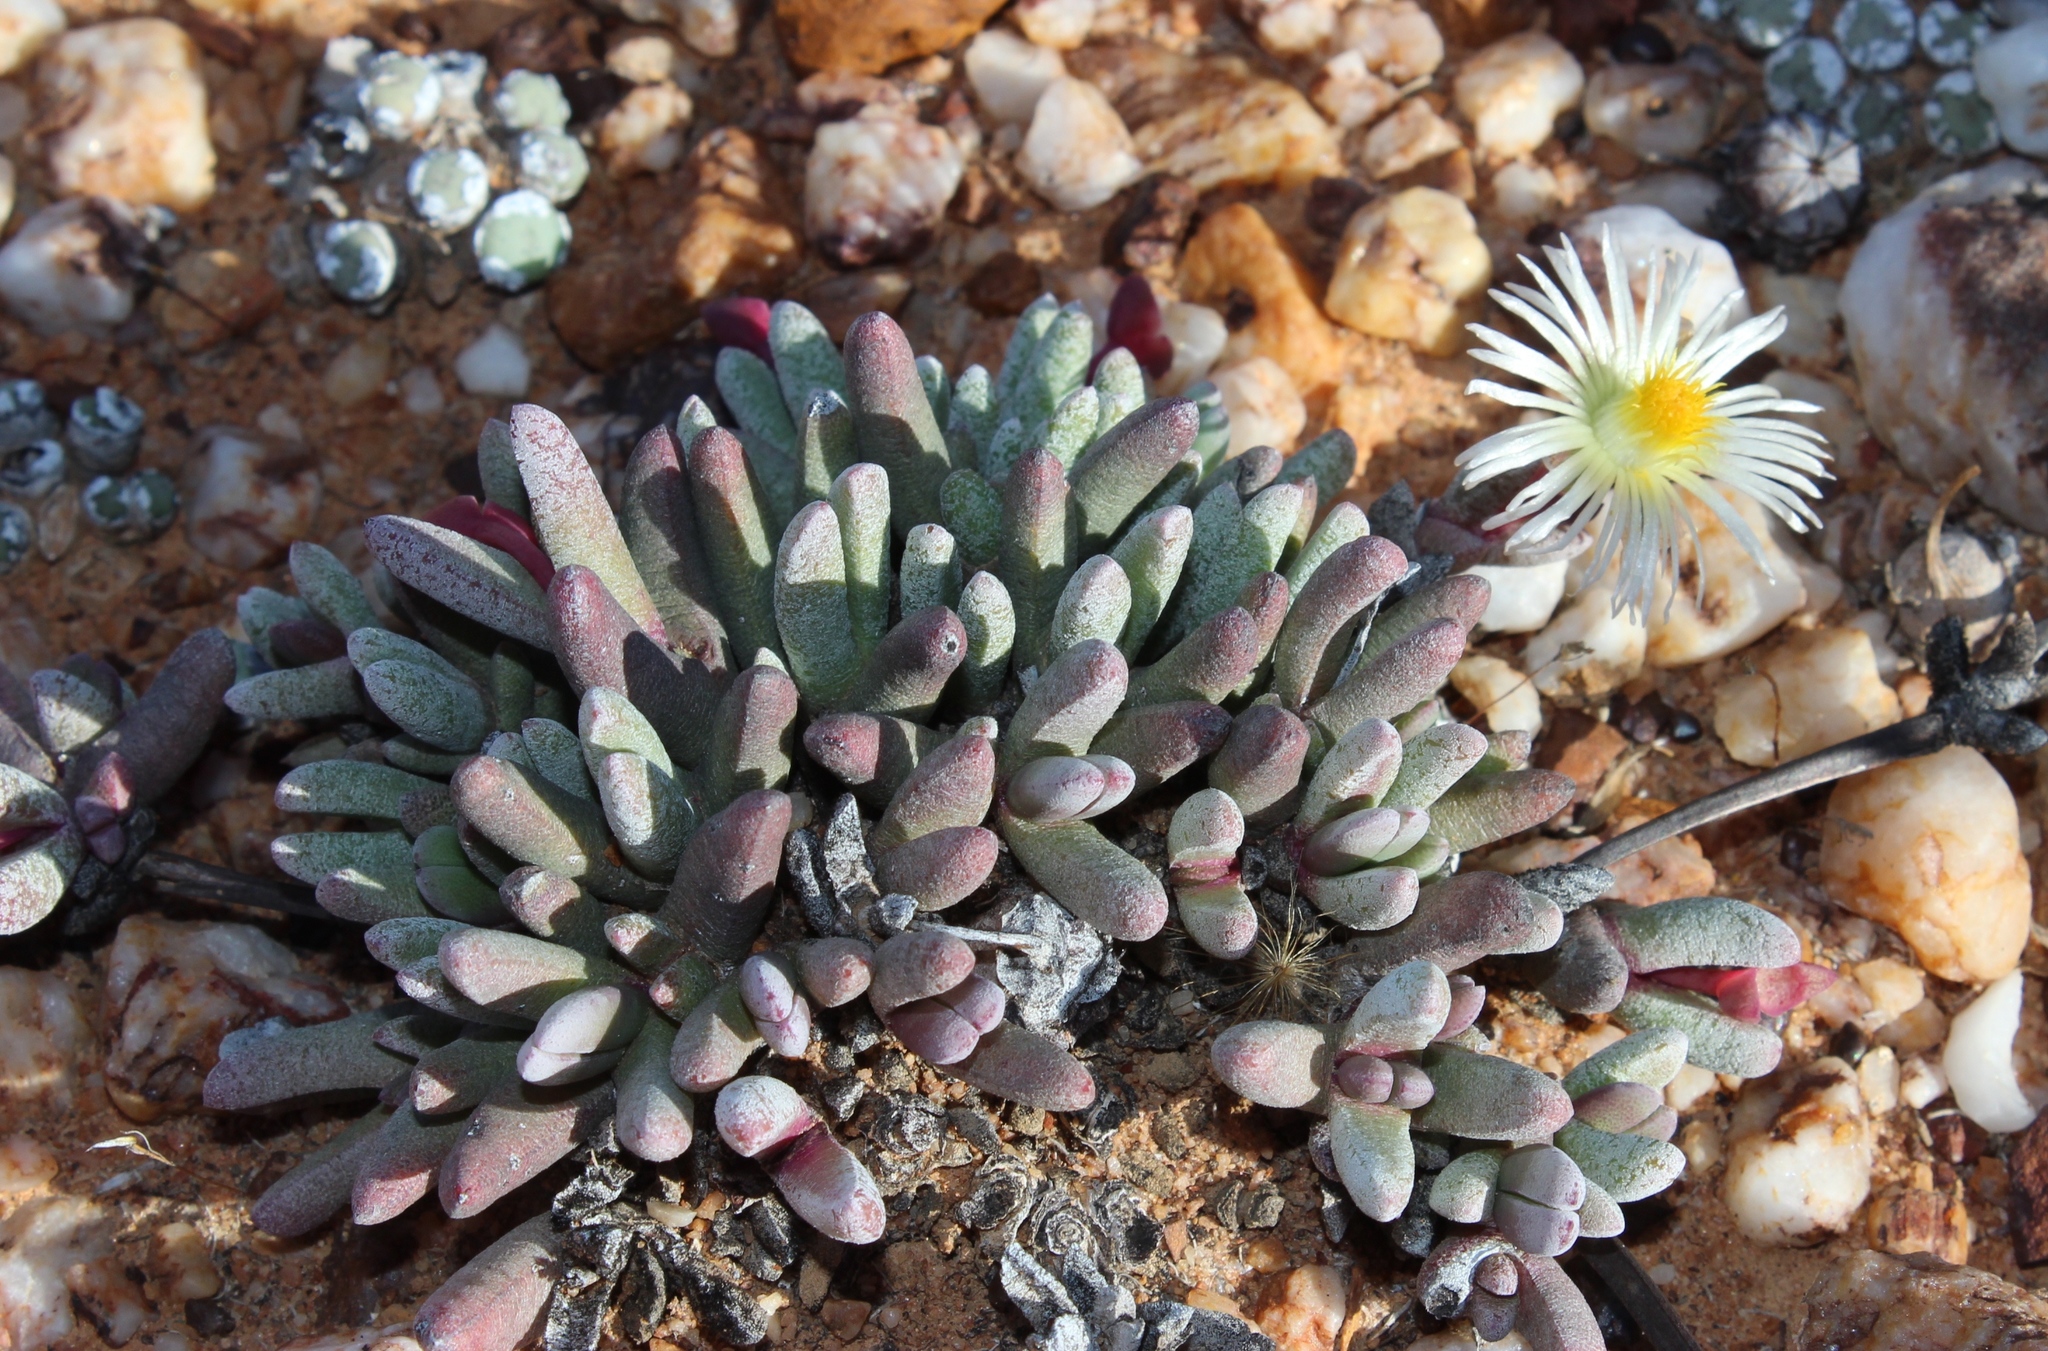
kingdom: Plantae
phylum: Tracheophyta
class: Magnoliopsida
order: Caryophyllales
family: Aizoaceae
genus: Cephalophyllum
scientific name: Cephalophyllum staminodiosum
